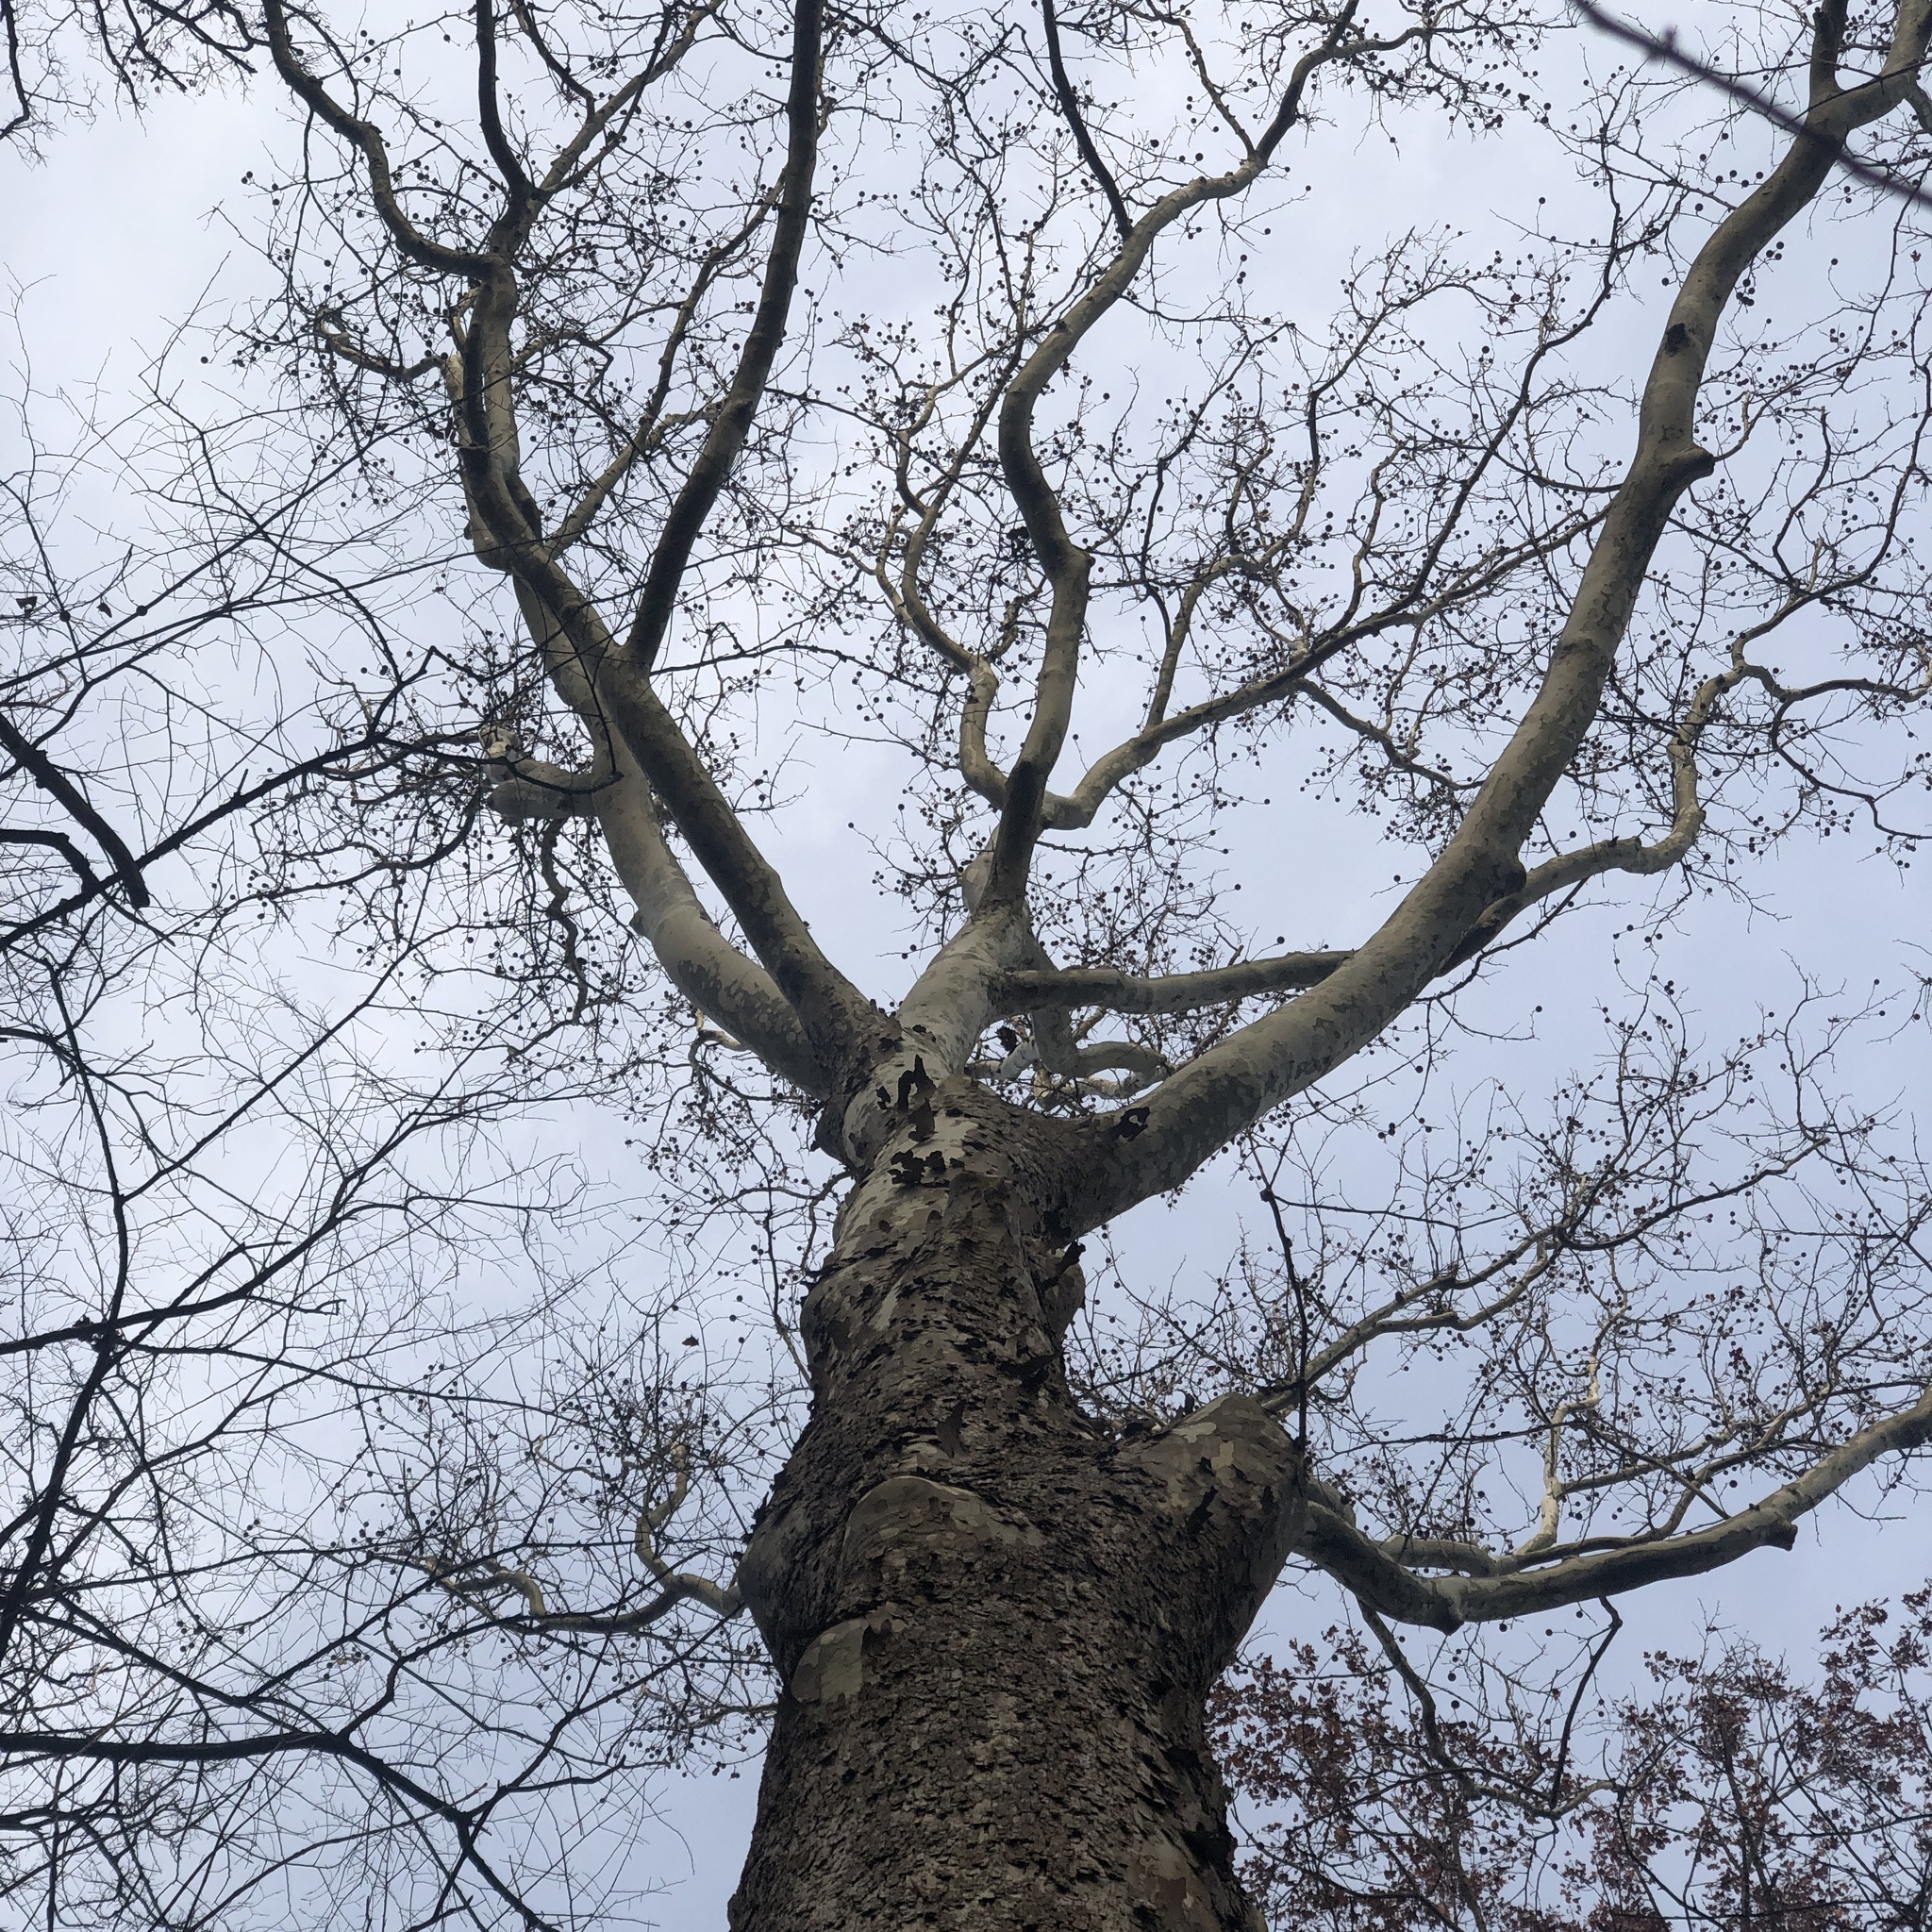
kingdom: Plantae
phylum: Tracheophyta
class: Magnoliopsida
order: Proteales
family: Platanaceae
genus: Platanus
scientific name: Platanus occidentalis
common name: American sycamore
